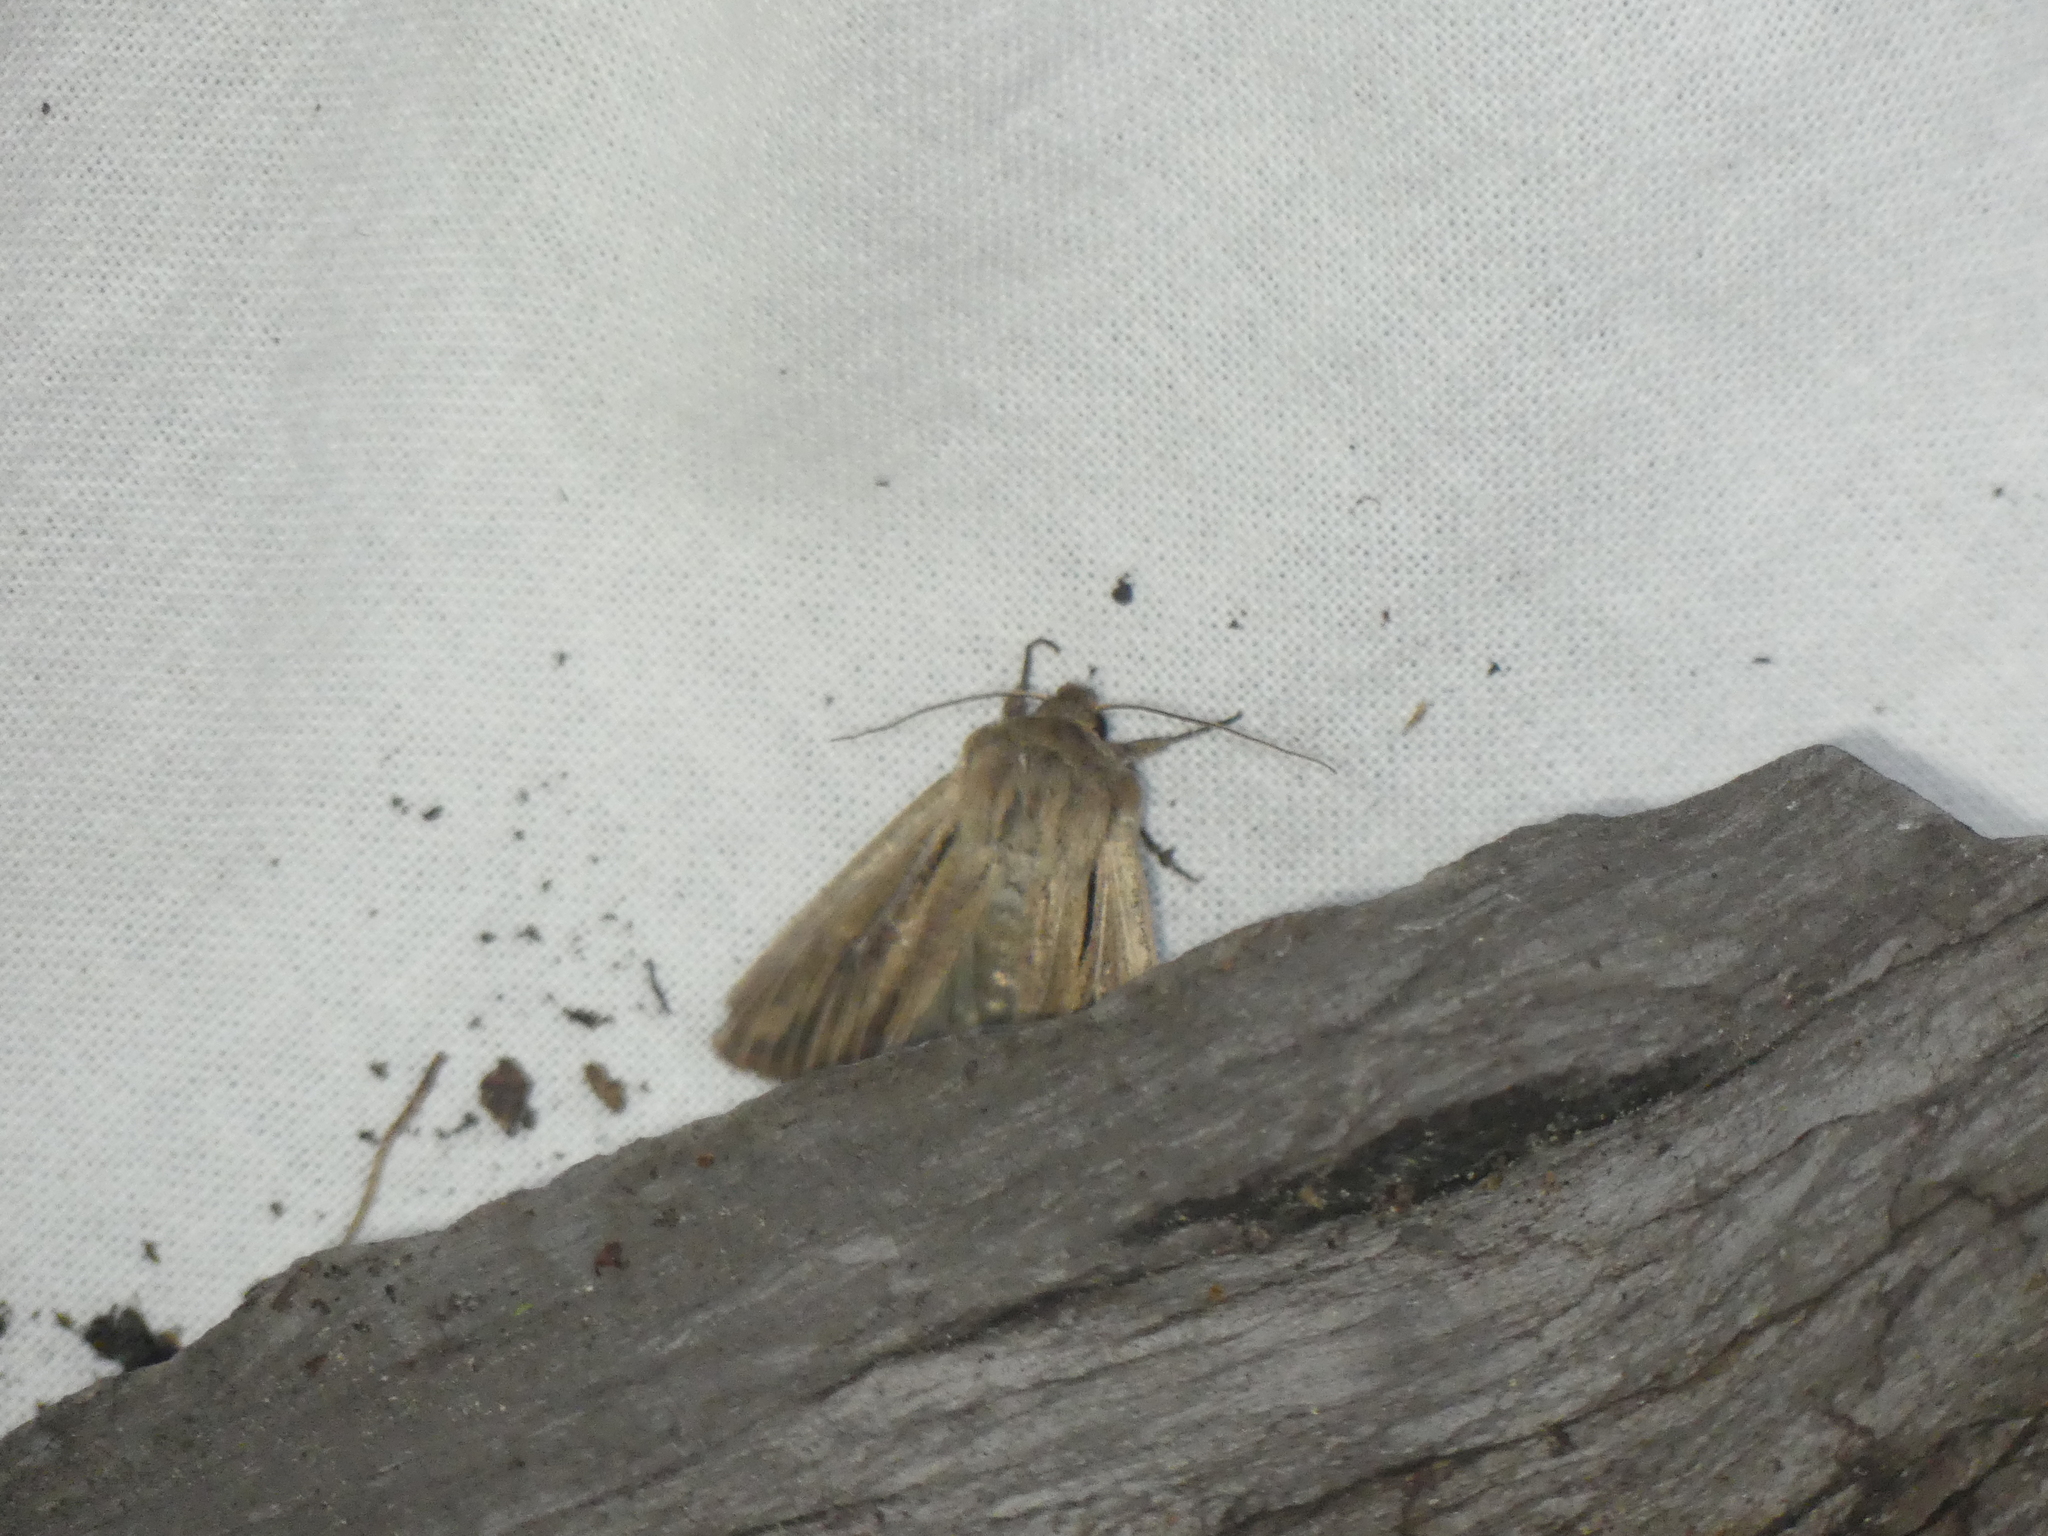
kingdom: Animalia
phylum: Arthropoda
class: Insecta
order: Lepidoptera
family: Noctuidae
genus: Mythimna
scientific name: Mythimna anderreggii
